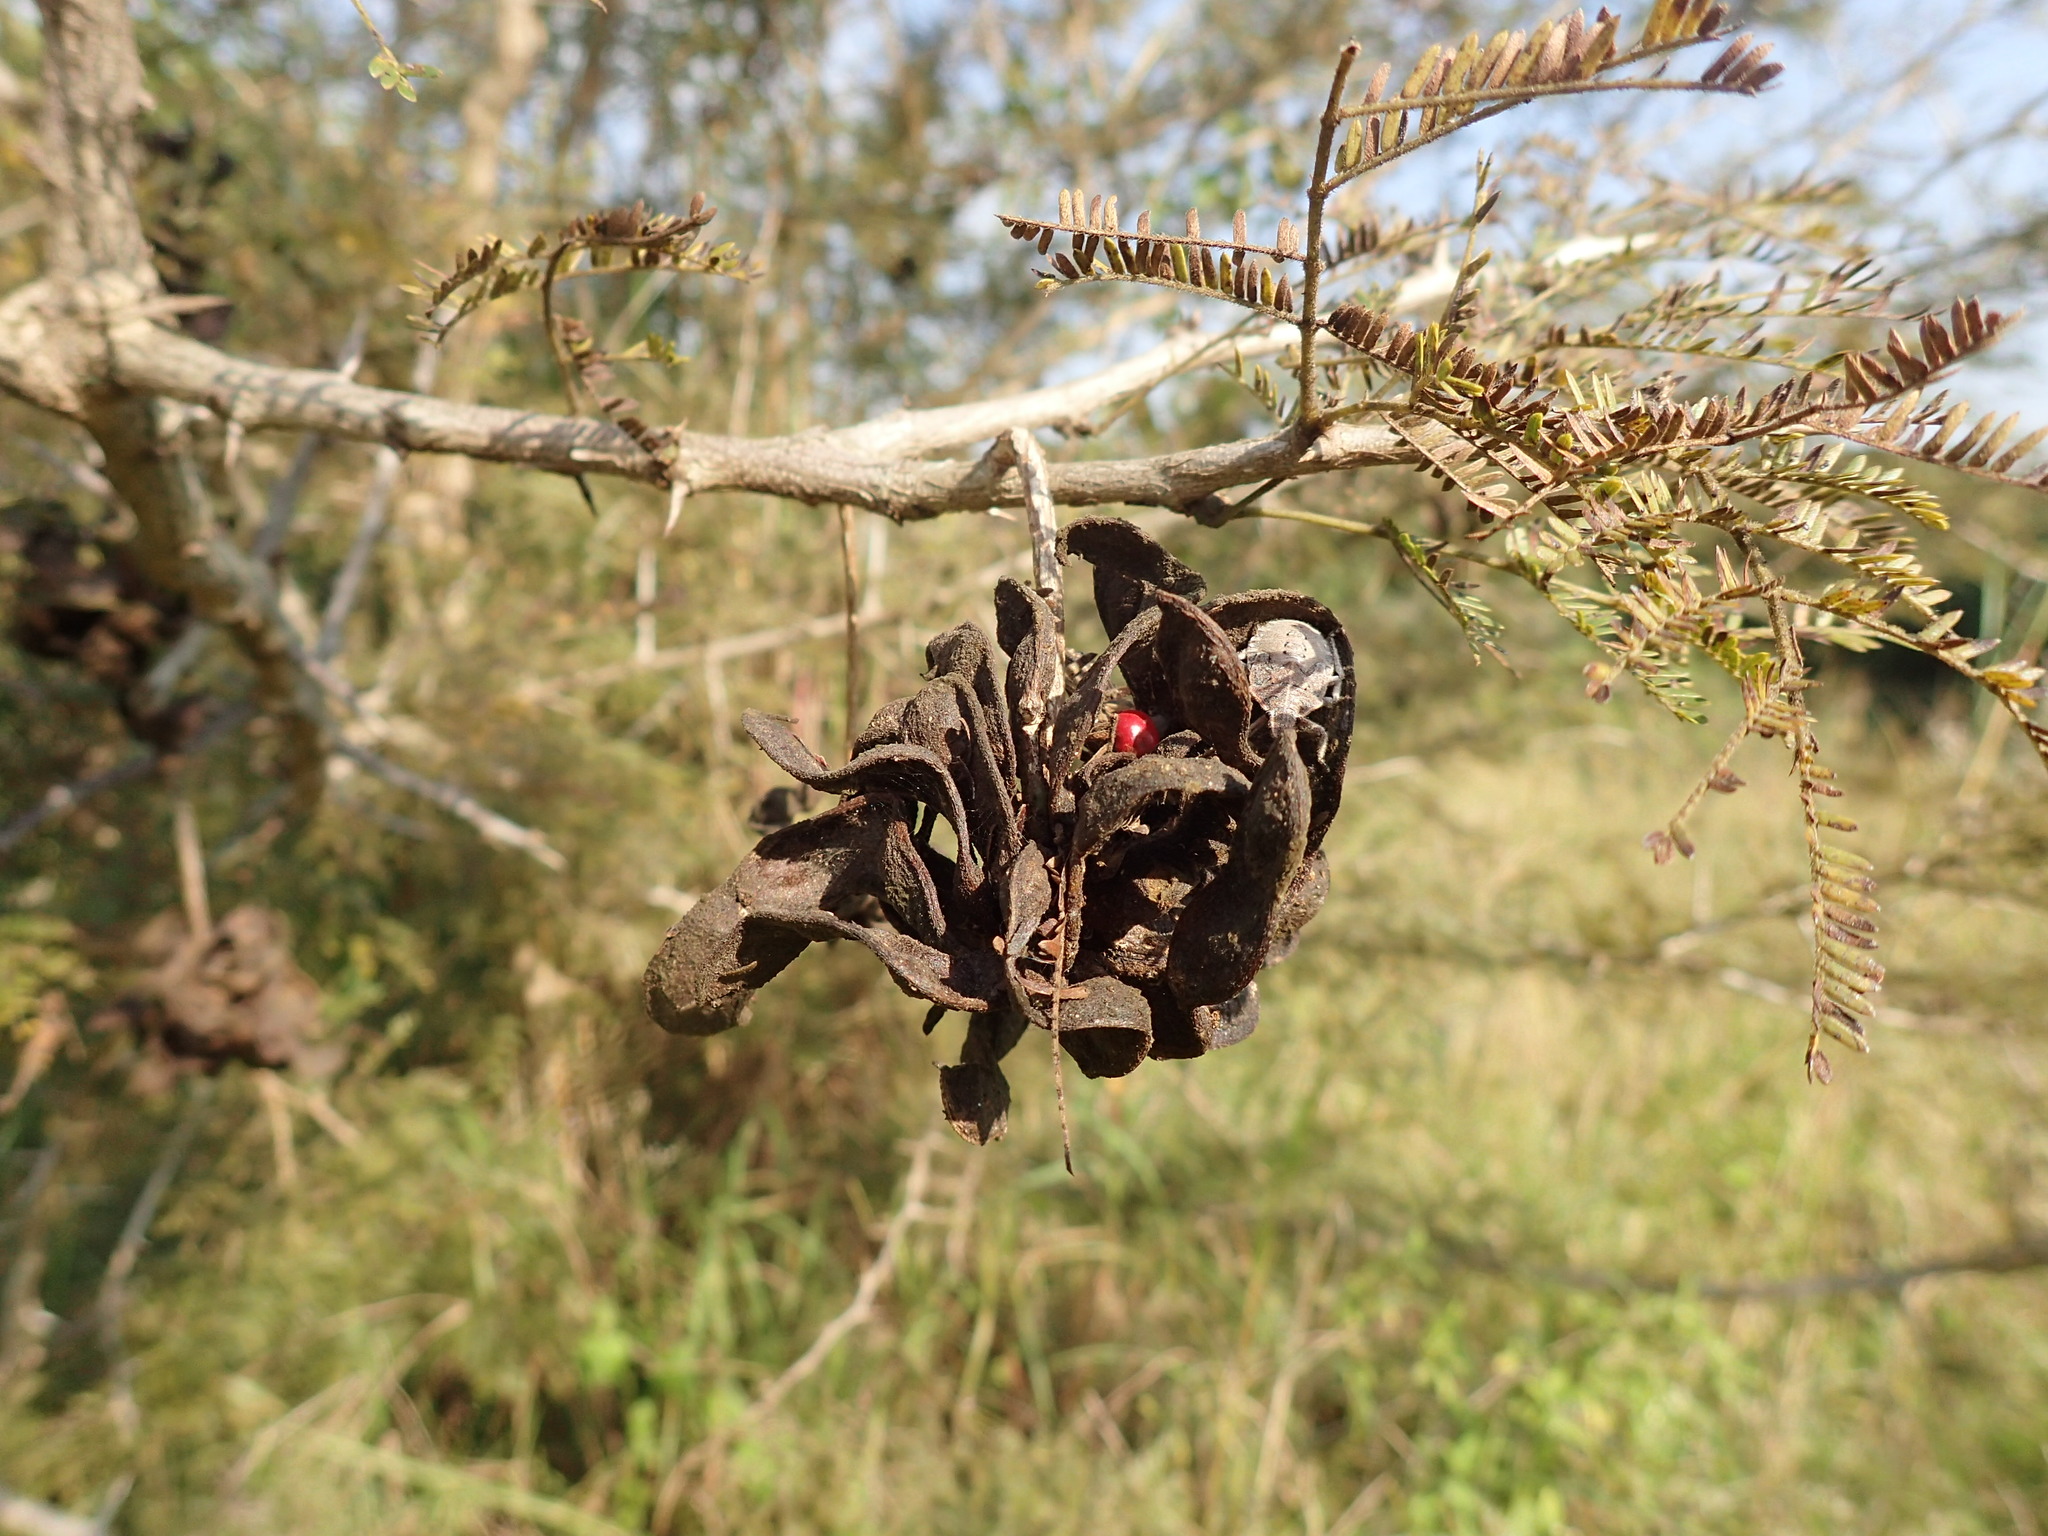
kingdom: Plantae
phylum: Tracheophyta
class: Magnoliopsida
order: Fabales
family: Fabaceae
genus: Dichrostachys
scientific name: Dichrostachys cinerea
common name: Sicklebush
